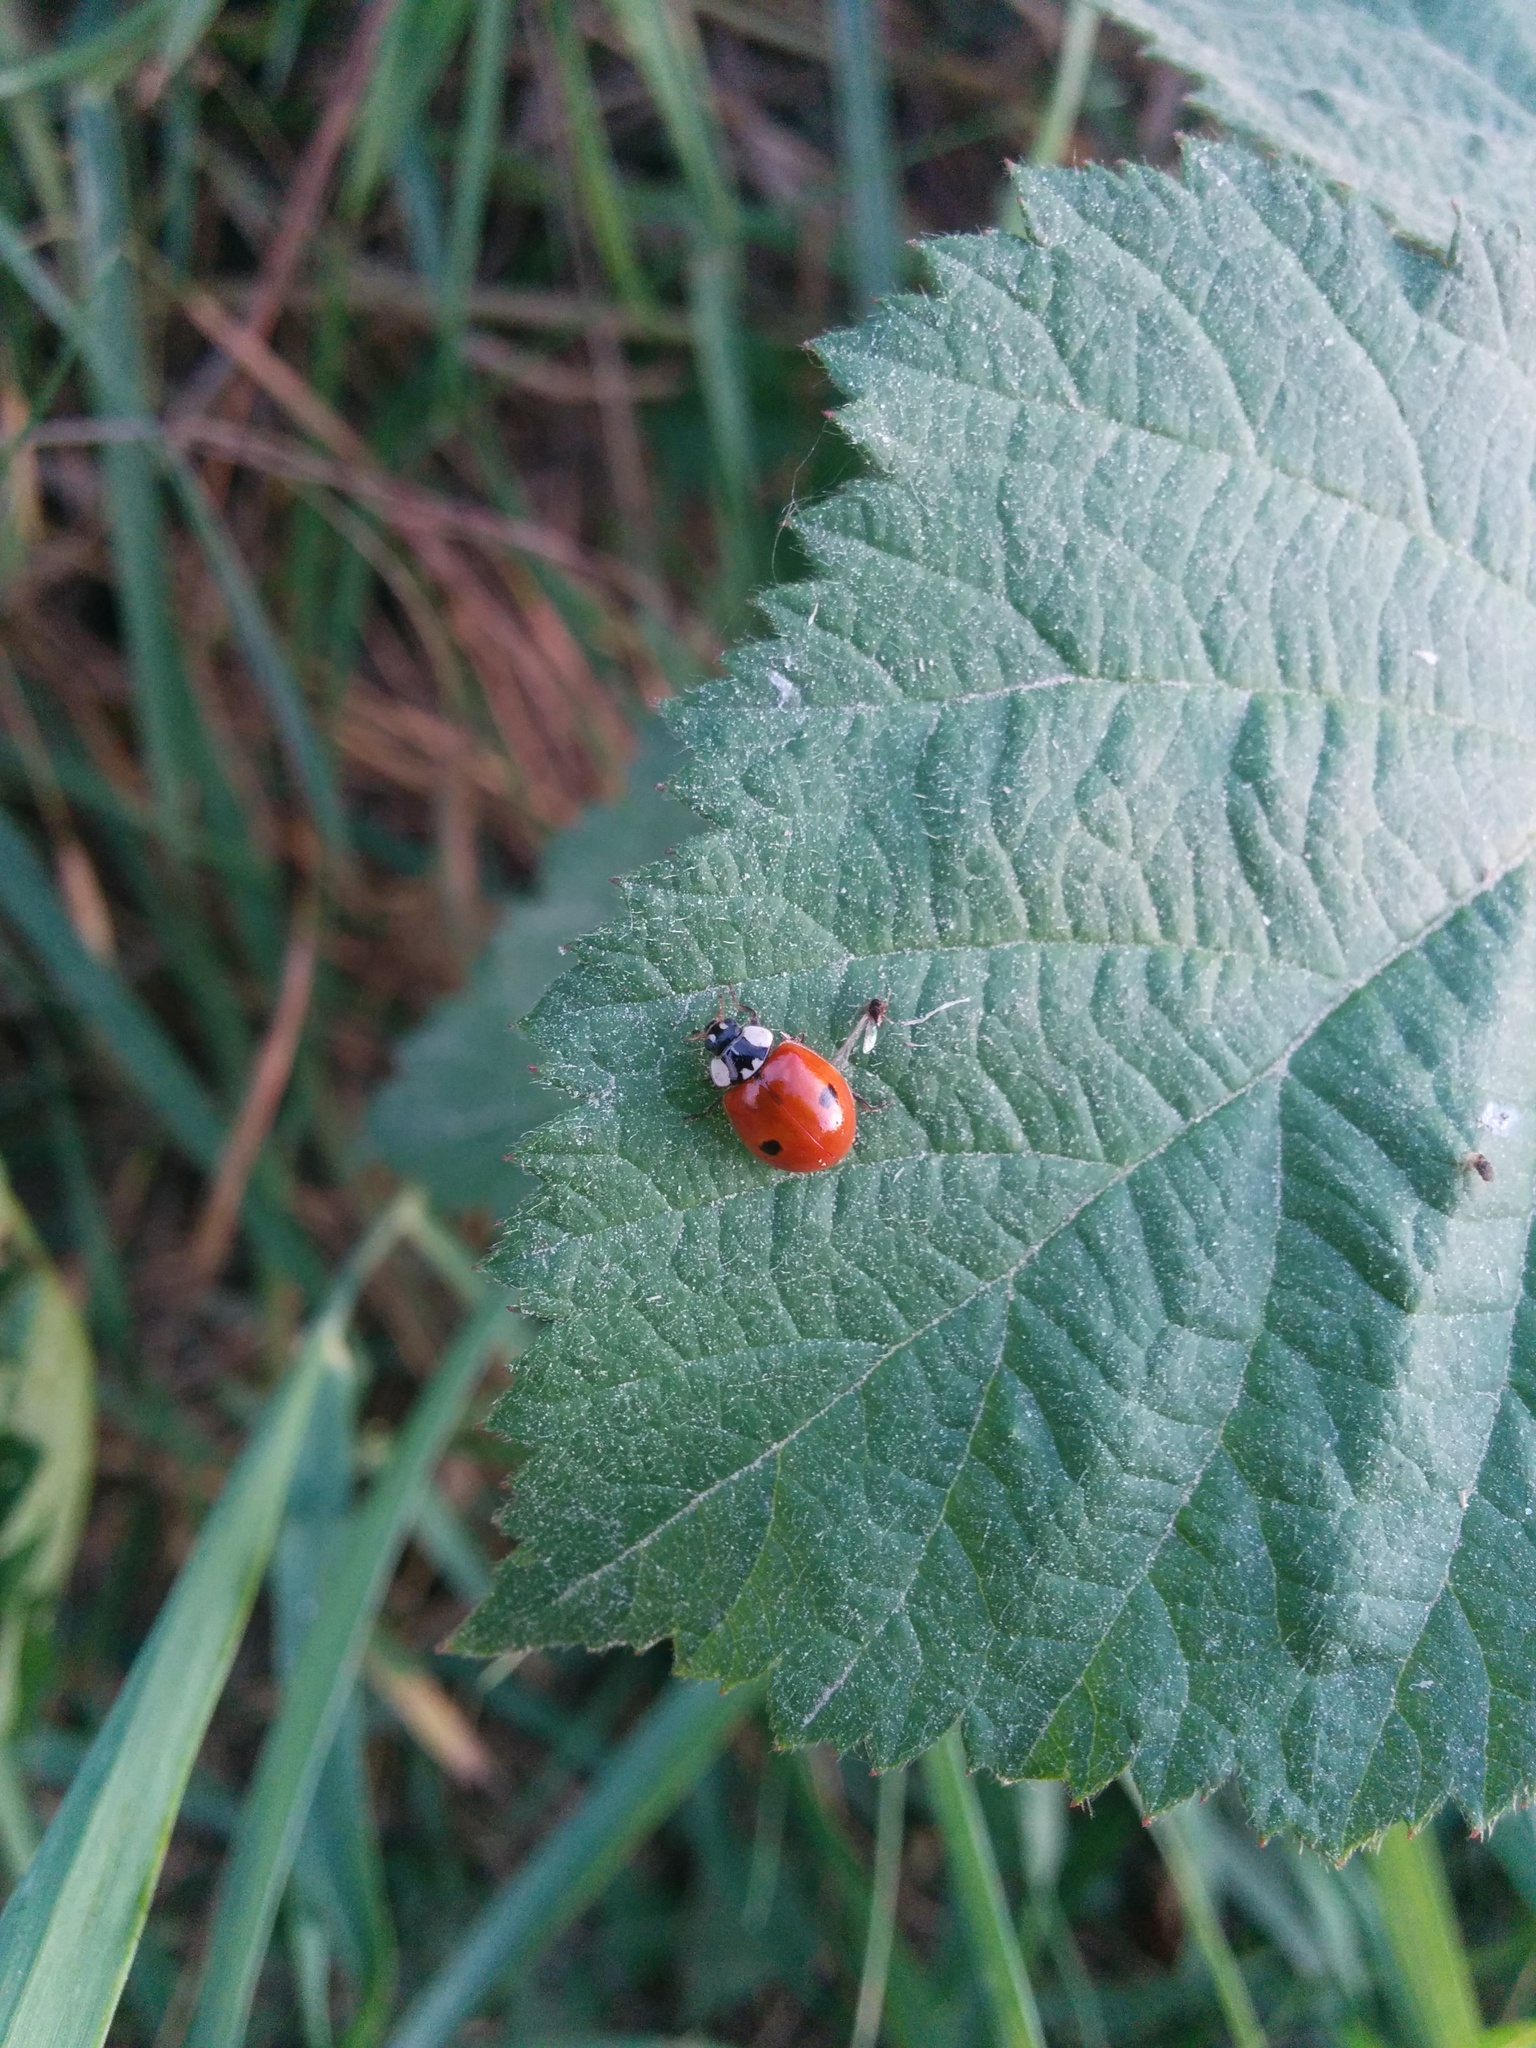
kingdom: Animalia
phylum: Arthropoda
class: Insecta
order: Coleoptera
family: Coccinellidae
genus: Adalia
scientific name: Adalia bipunctata
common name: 2-spot ladybird
